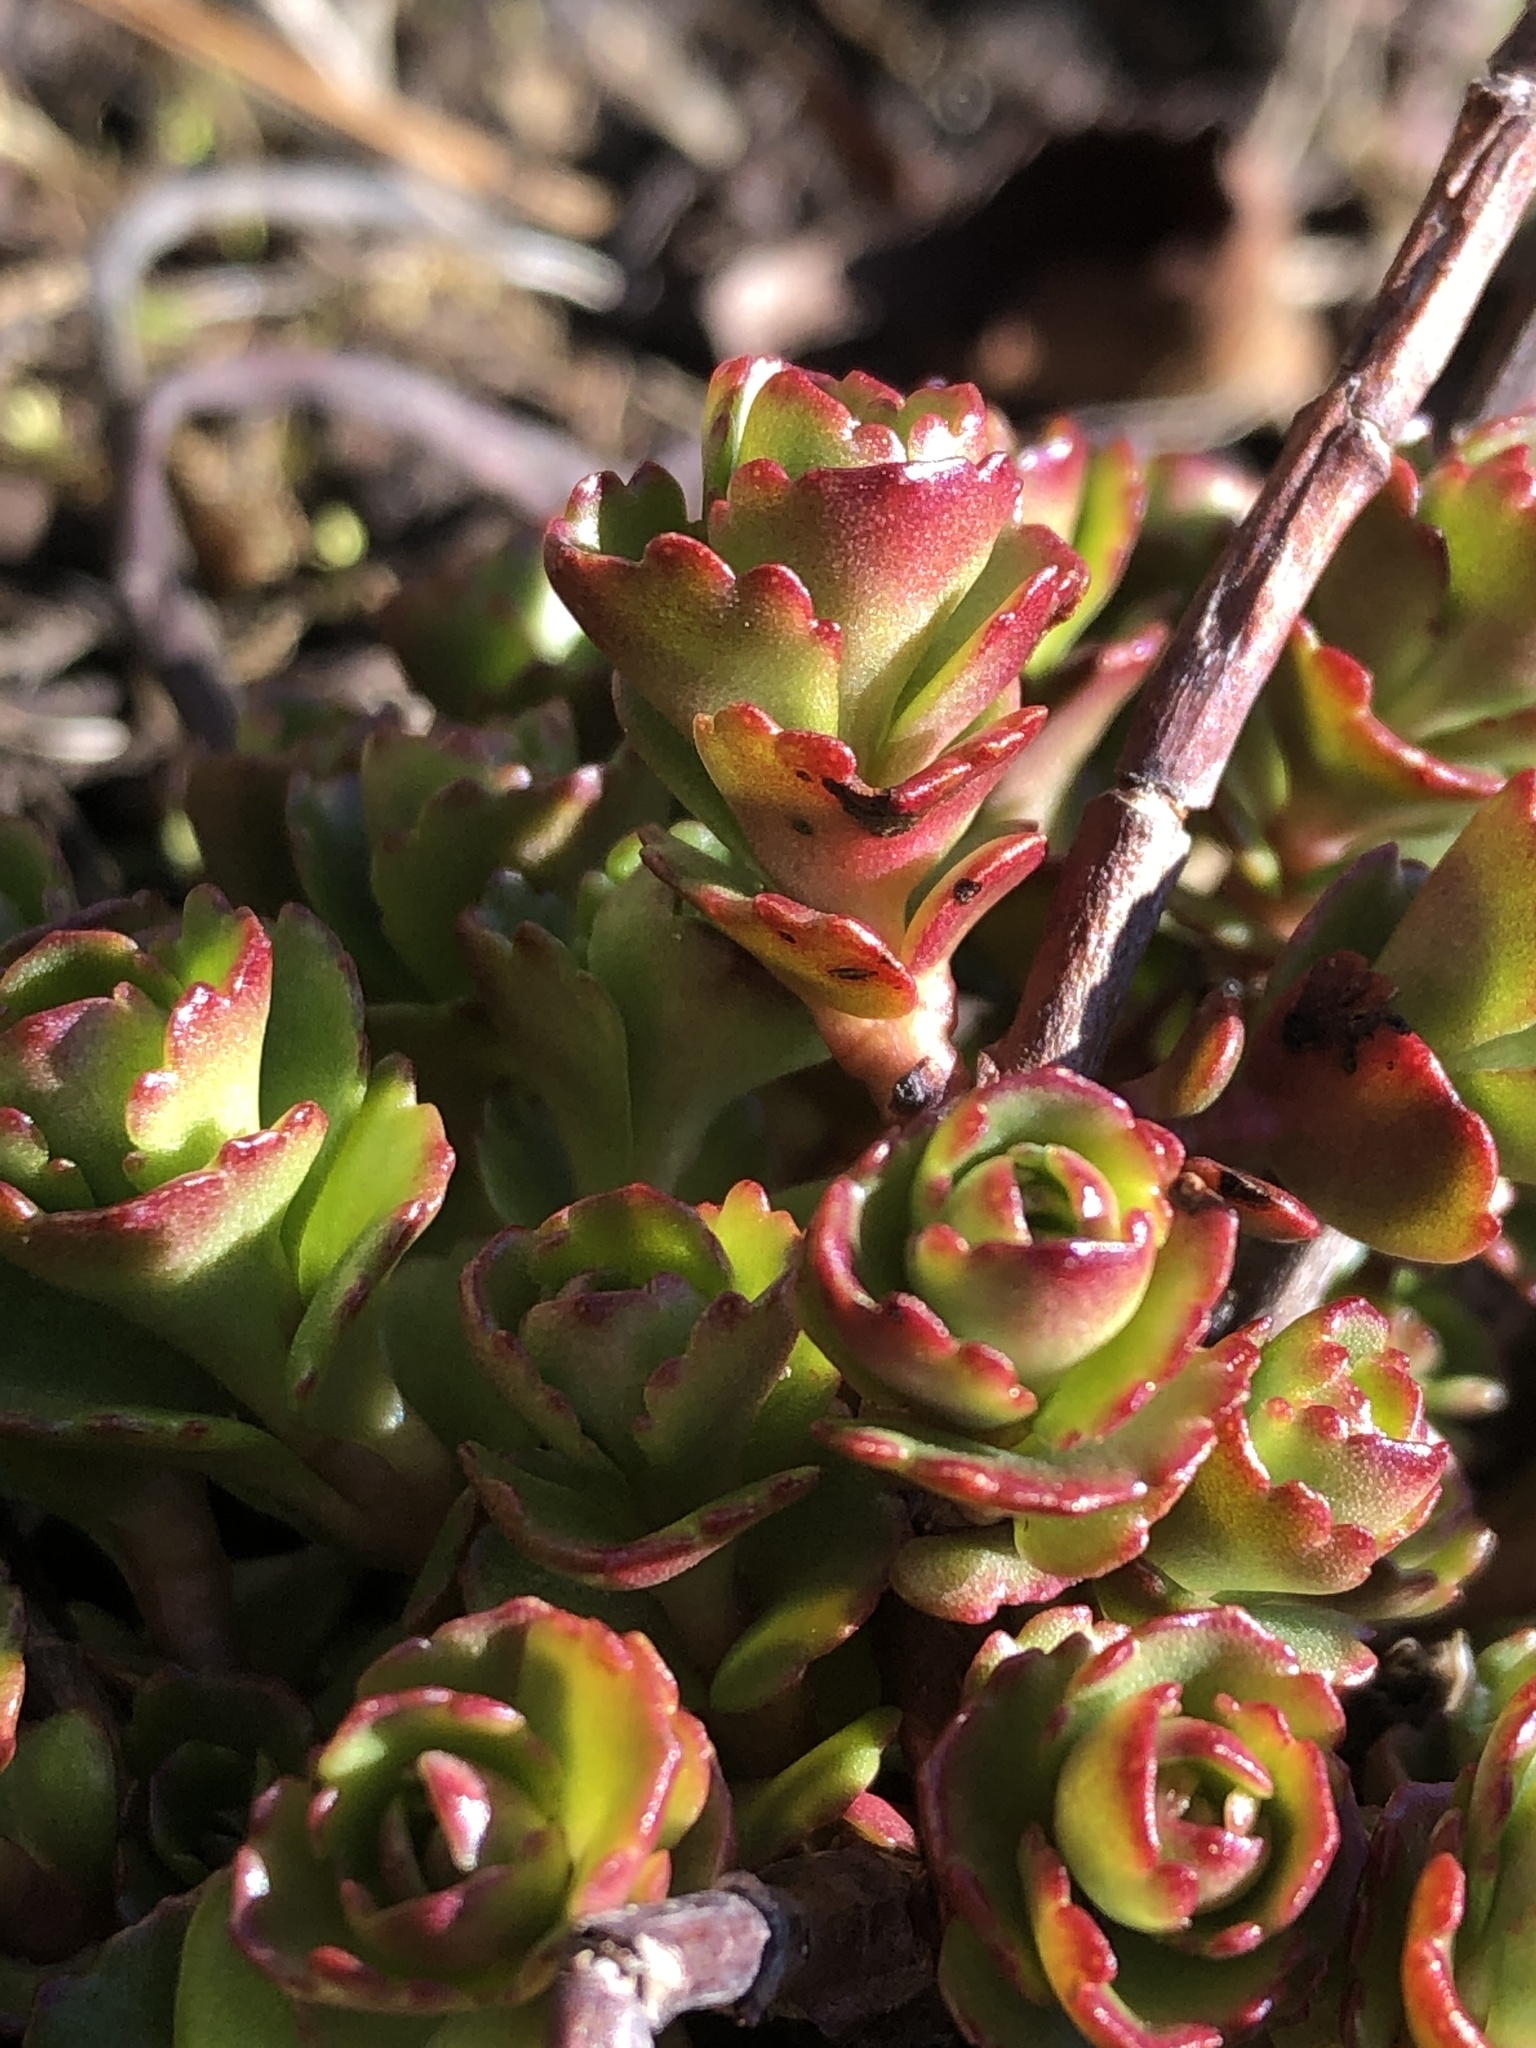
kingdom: Plantae
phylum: Tracheophyta
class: Magnoliopsida
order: Saxifragales
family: Crassulaceae
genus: Rhodiola
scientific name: Rhodiola rosea
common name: Roseroot
